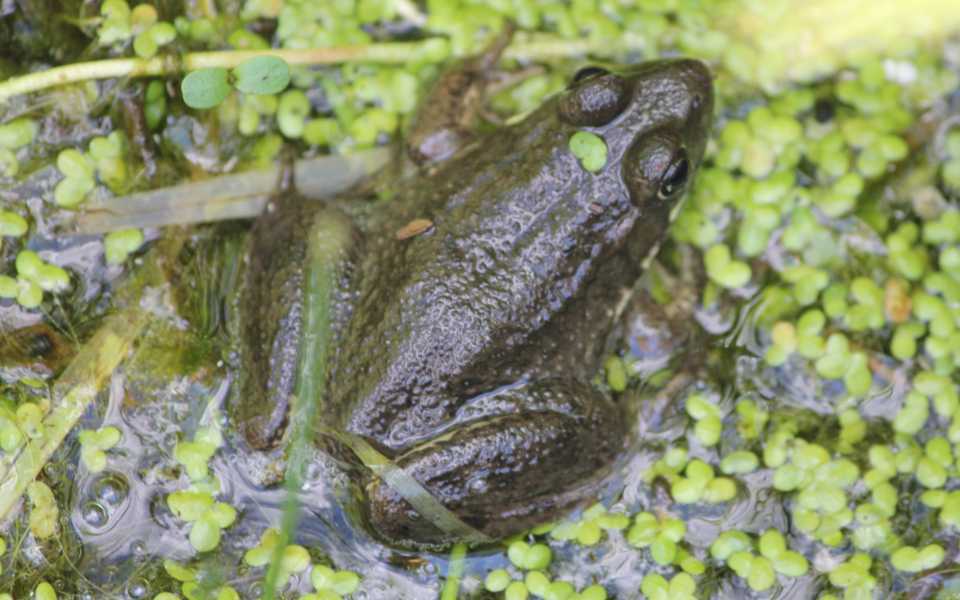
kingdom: Animalia
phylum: Chordata
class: Amphibia
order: Anura
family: Ranidae
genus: Lithobates
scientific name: Lithobates catesbeianus
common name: American bullfrog
